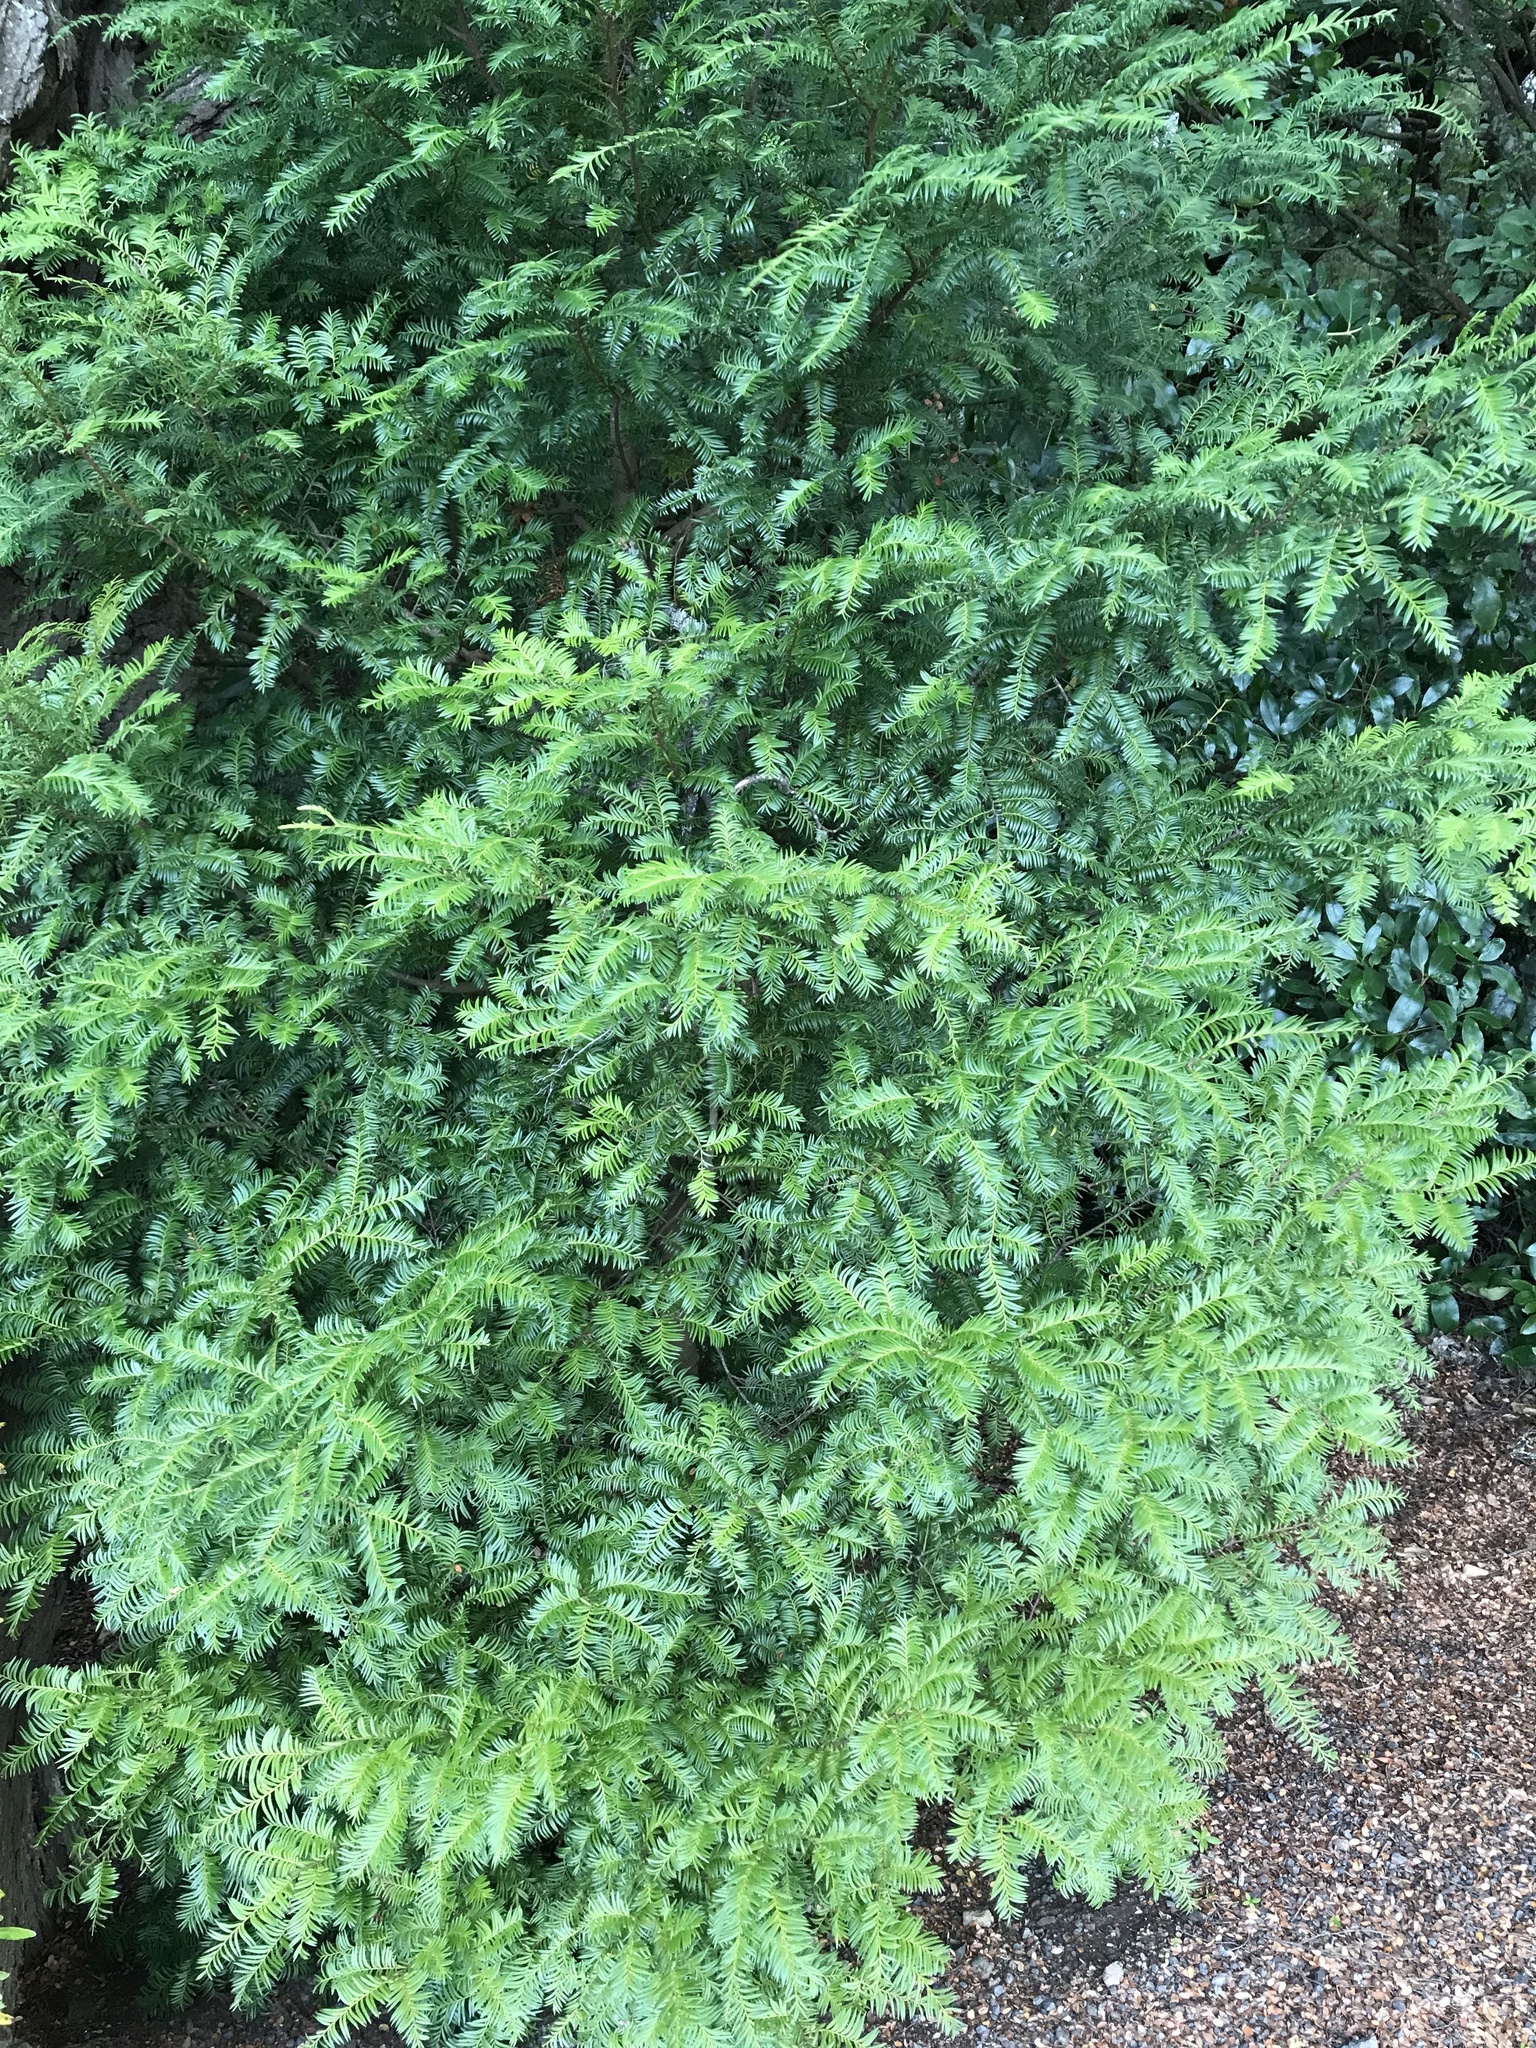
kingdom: Plantae
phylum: Tracheophyta
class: Pinopsida
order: Pinales
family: Podocarpaceae
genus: Prumnopitys
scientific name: Prumnopitys ferruginea
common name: Brown pine
